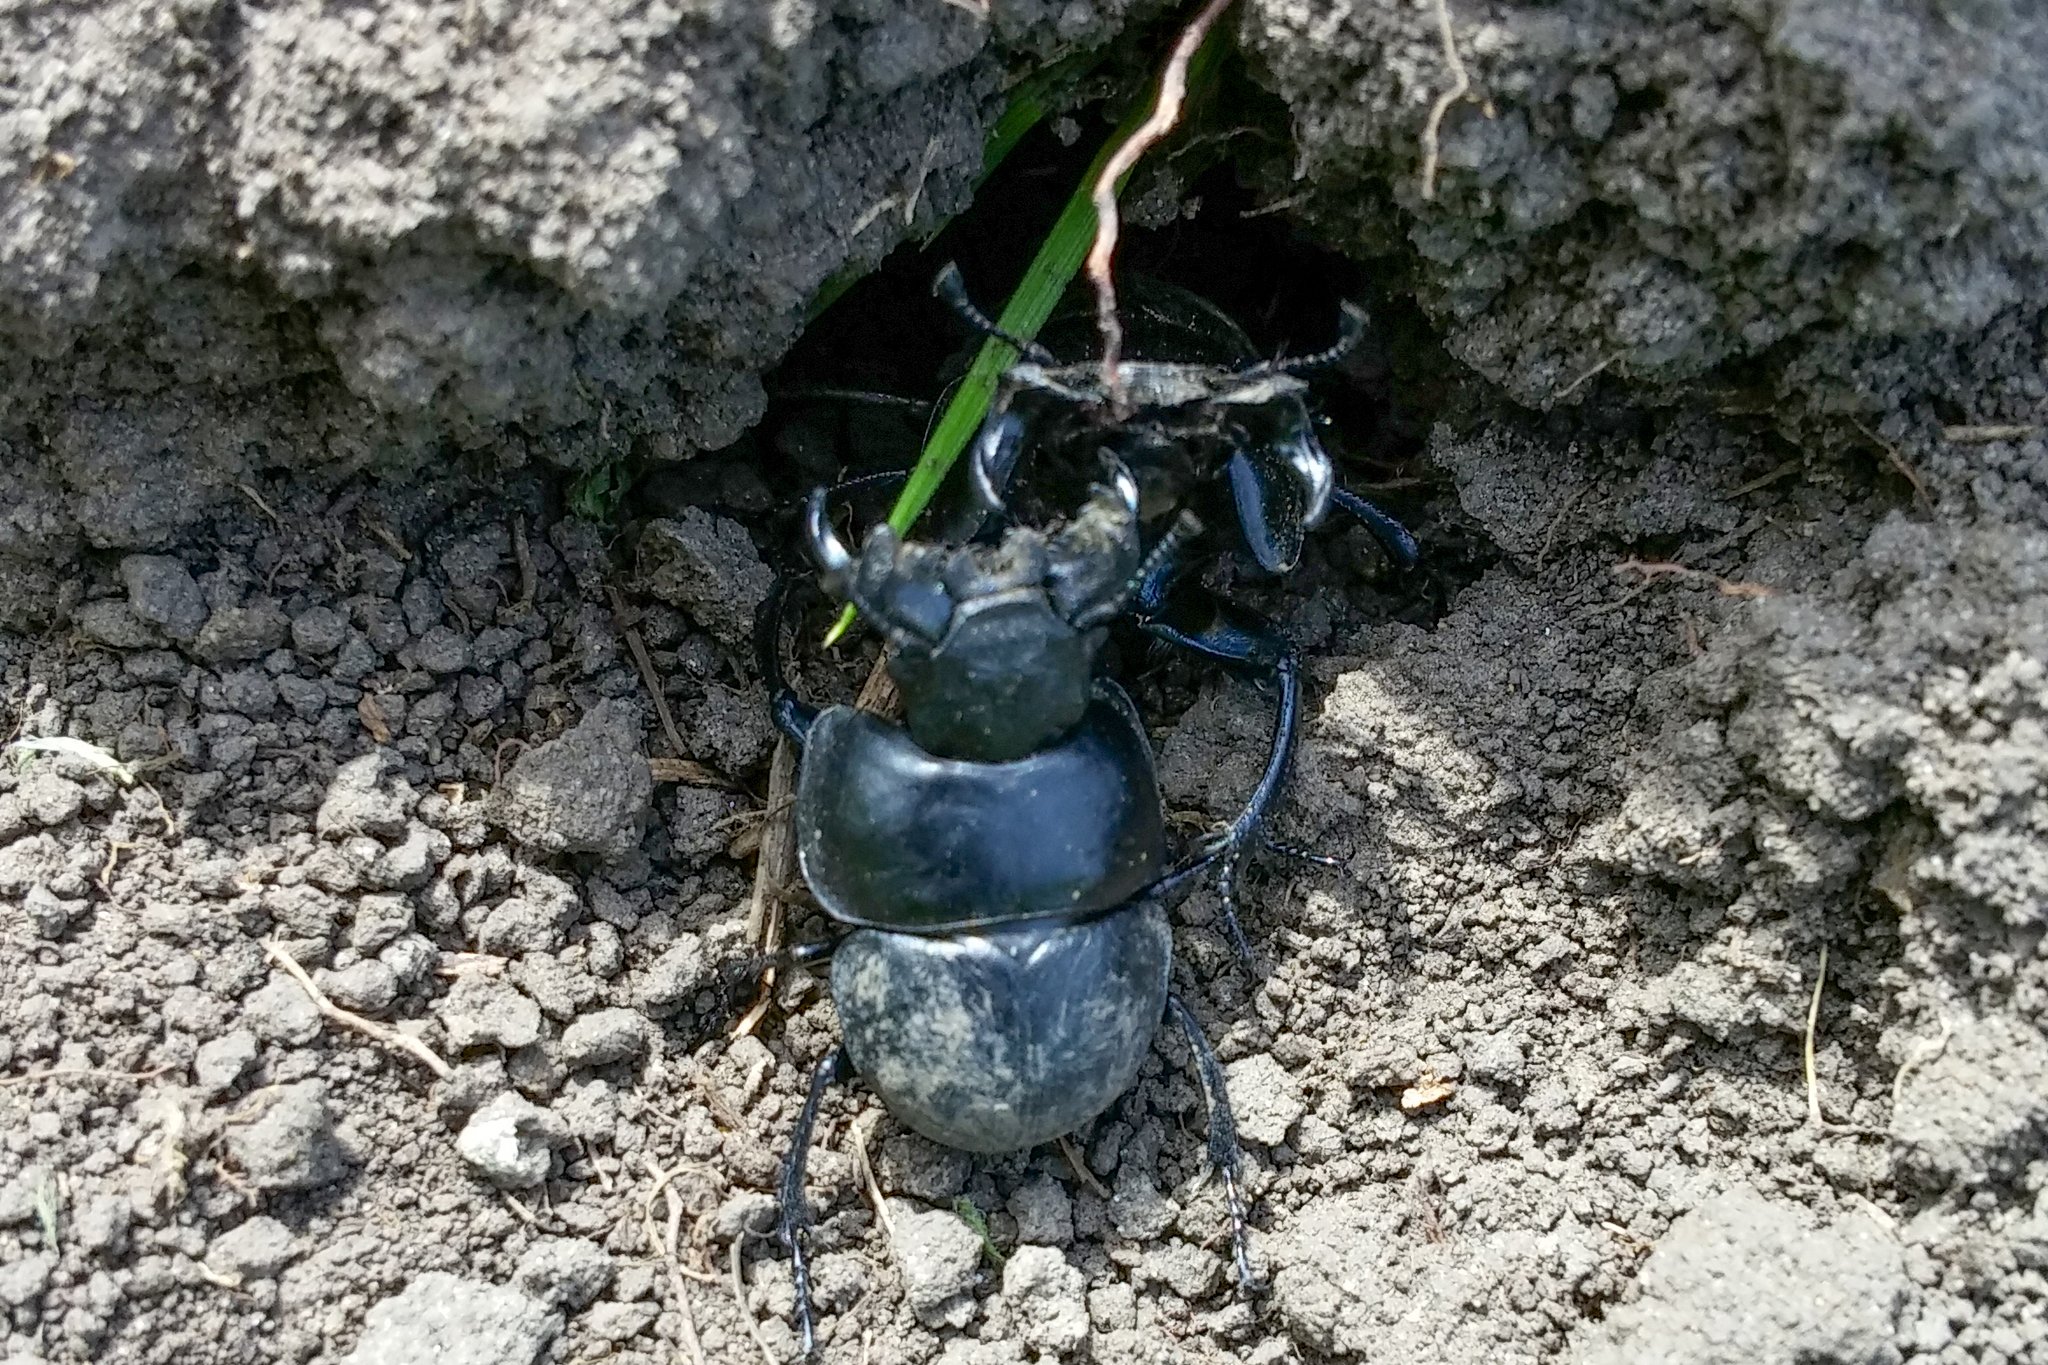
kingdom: Animalia
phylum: Arthropoda
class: Insecta
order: Coleoptera
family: Geotrupidae
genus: Lethrus
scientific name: Lethrus apterus
